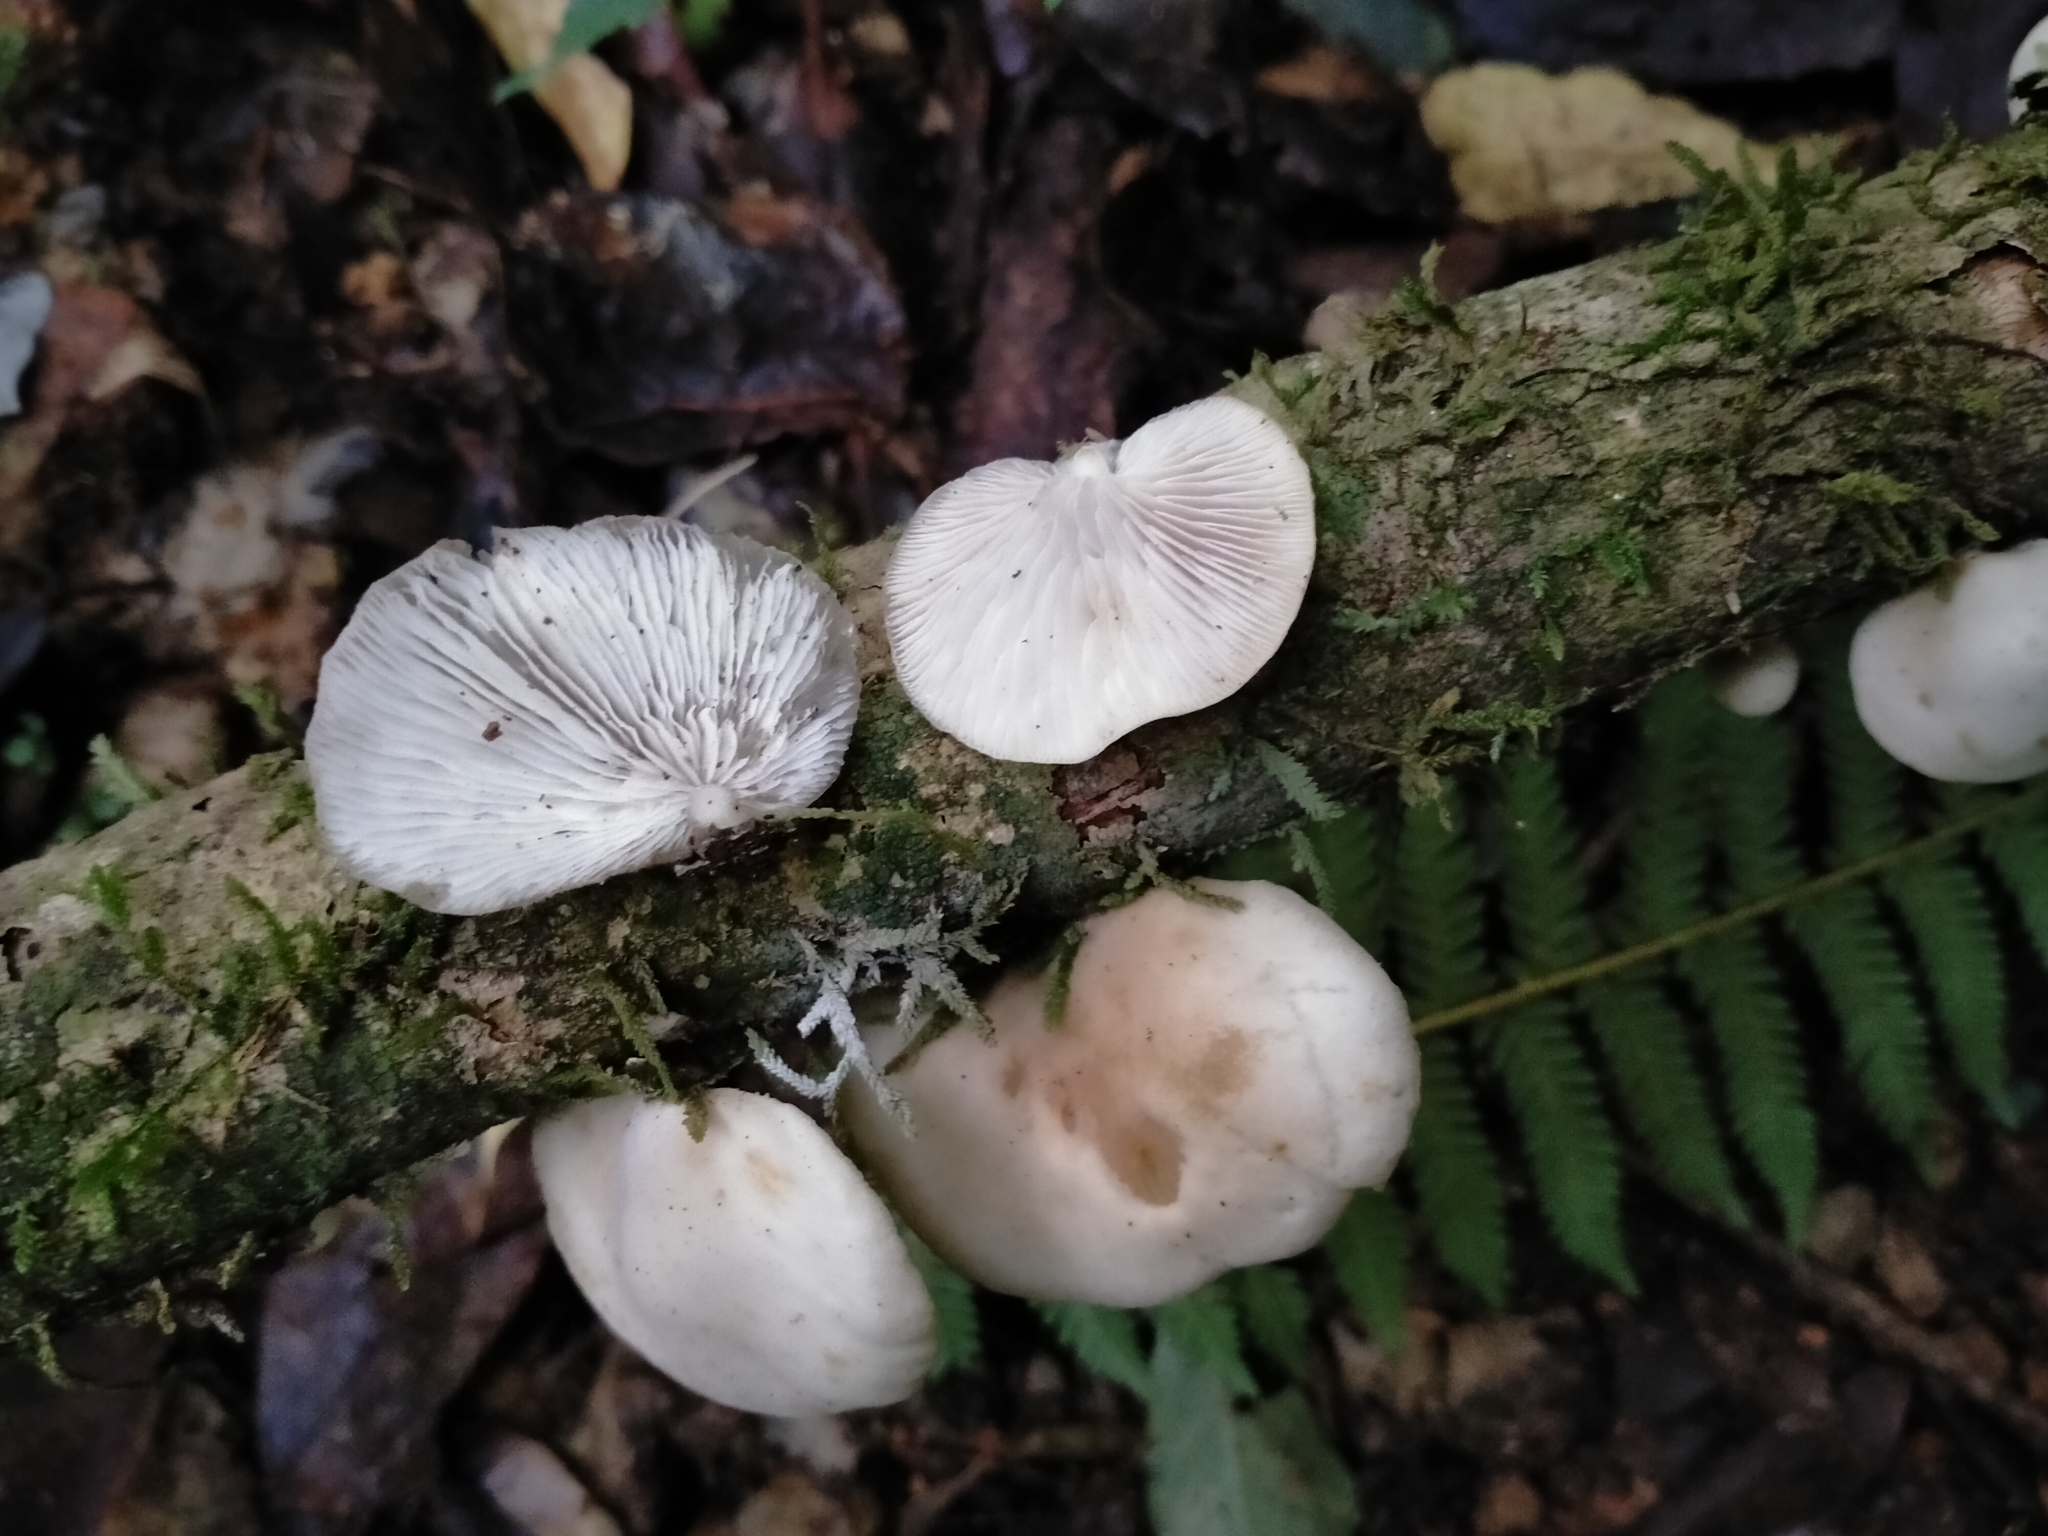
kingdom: Fungi
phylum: Basidiomycota
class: Agaricomycetes
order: Agaricales
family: Tricholomataceae
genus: Conchomyces
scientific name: Conchomyces bursiformis
